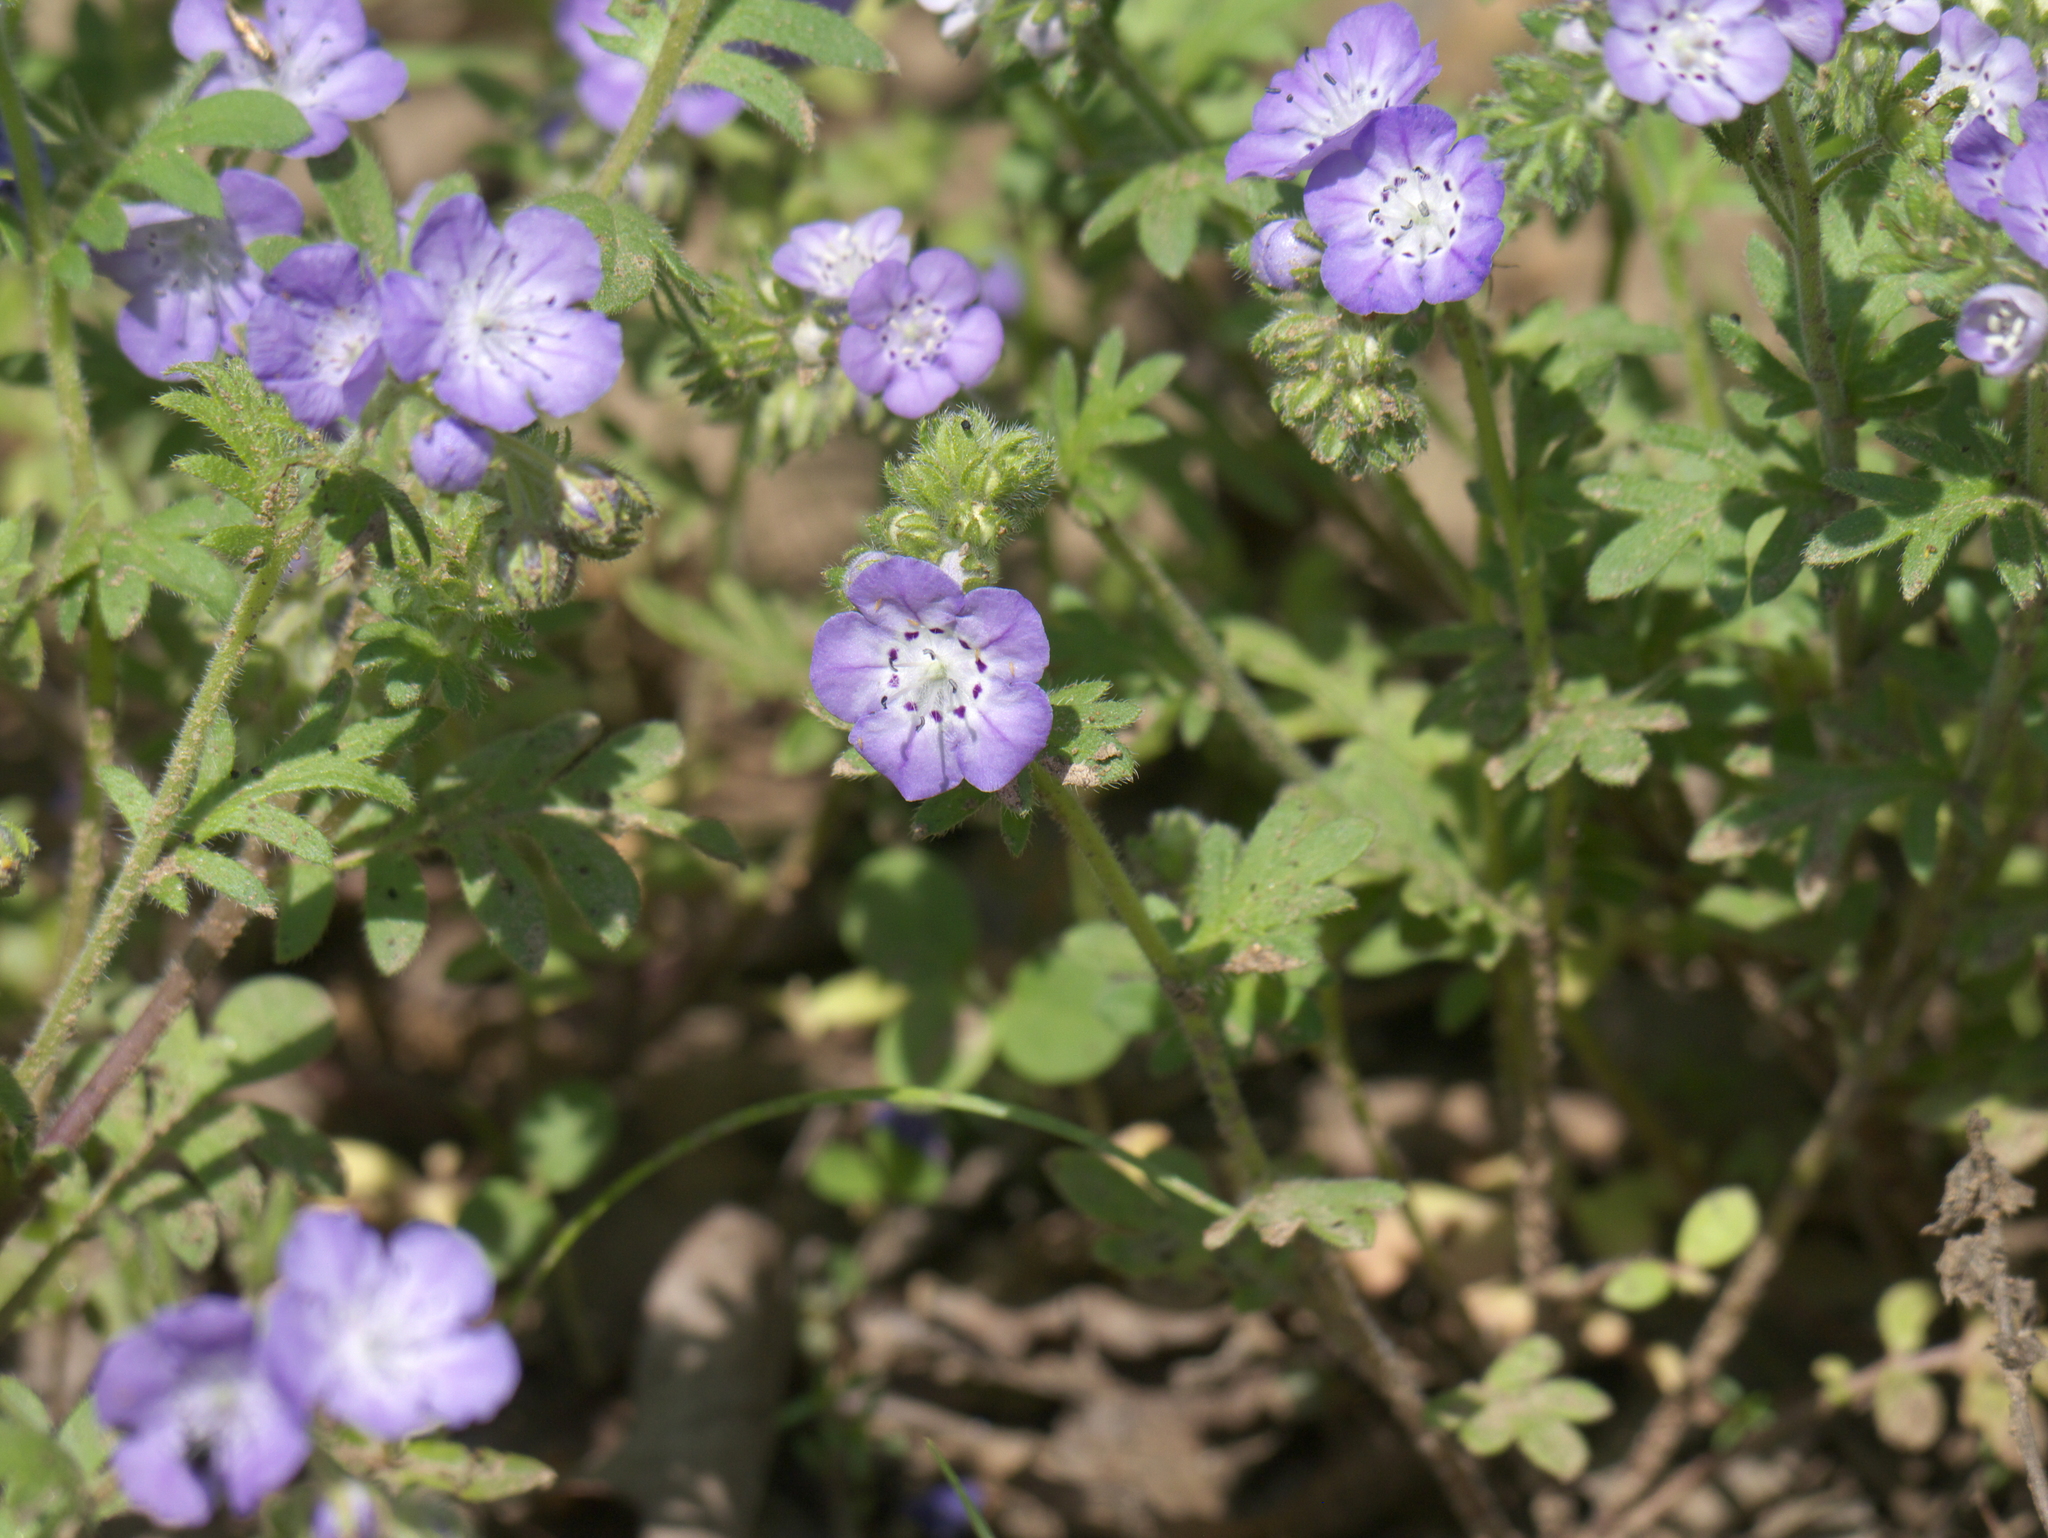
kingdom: Plantae
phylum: Tracheophyta
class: Magnoliopsida
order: Boraginales
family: Hydrophyllaceae
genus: Phacelia
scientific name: Phacelia hirsuta
